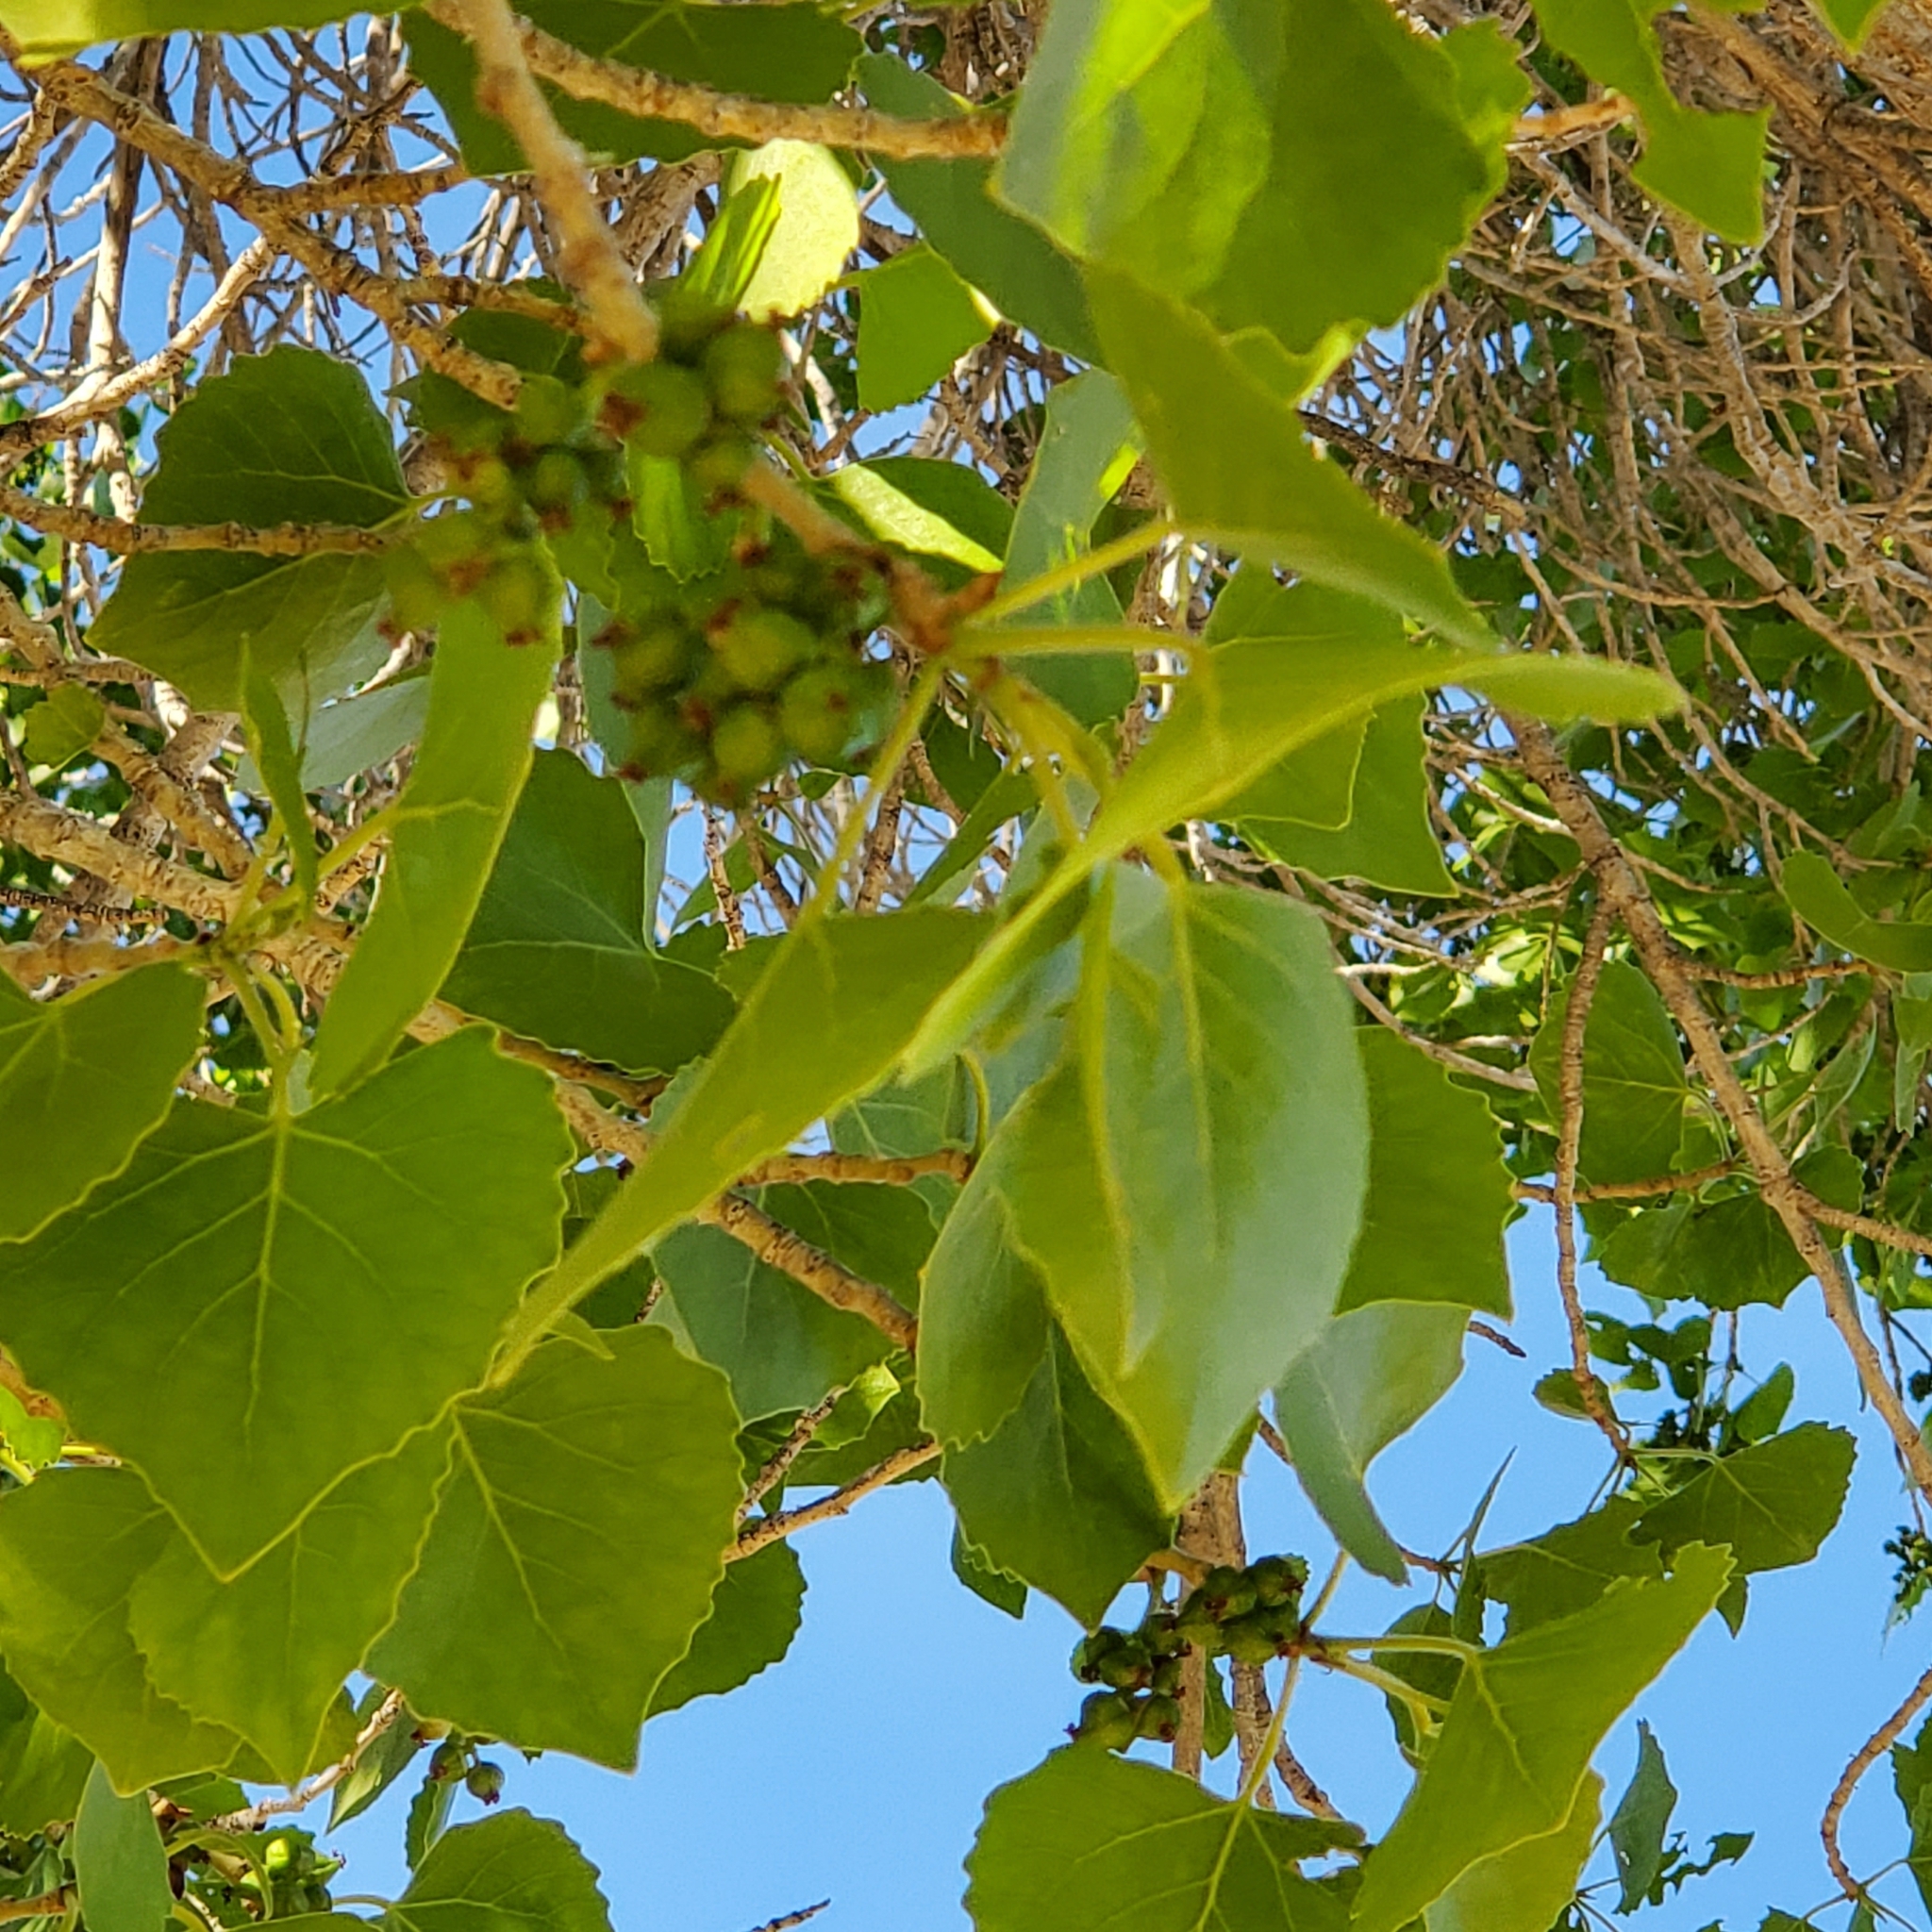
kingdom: Plantae
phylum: Tracheophyta
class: Magnoliopsida
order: Malpighiales
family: Salicaceae
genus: Populus
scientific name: Populus fremontii
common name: Fremont's cottonwood
